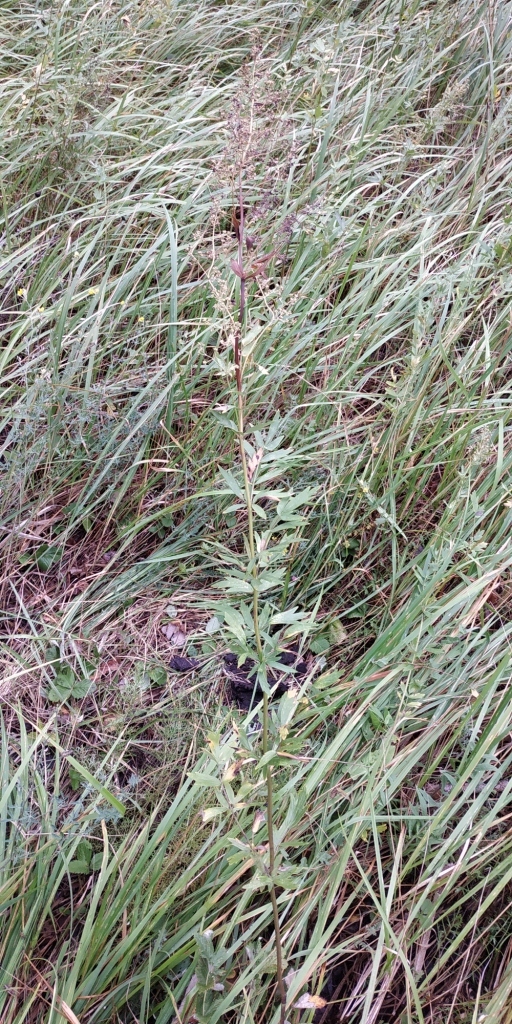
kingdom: Plantae
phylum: Tracheophyta
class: Magnoliopsida
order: Ranunculales
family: Ranunculaceae
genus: Thalictrum
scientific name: Thalictrum simplex
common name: Small meadow-rue
